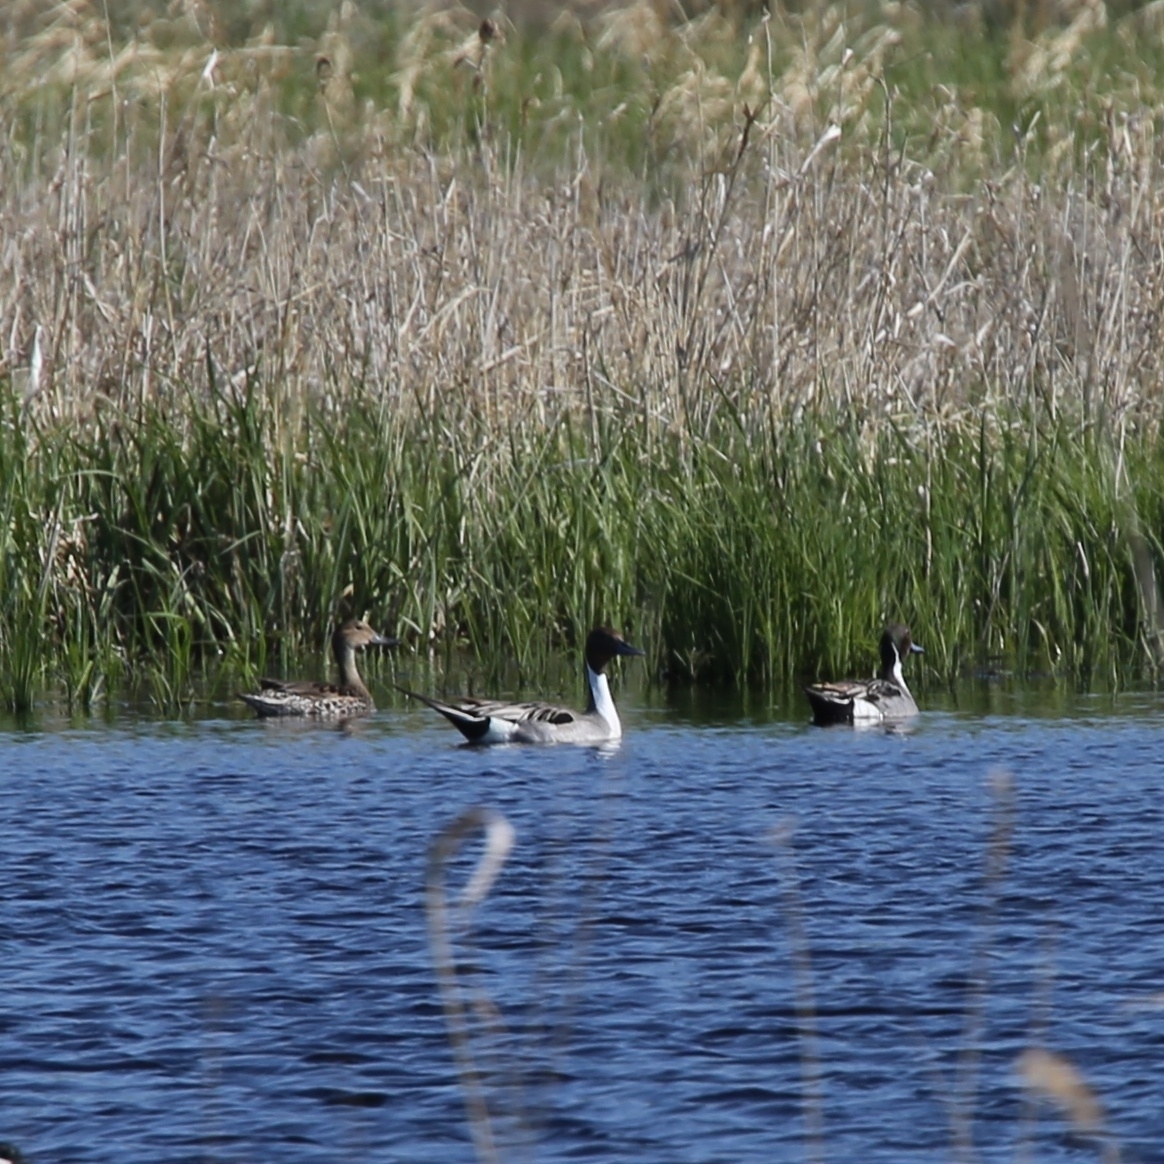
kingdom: Animalia
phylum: Chordata
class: Aves
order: Anseriformes
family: Anatidae
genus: Anas
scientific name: Anas acuta
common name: Northern pintail
